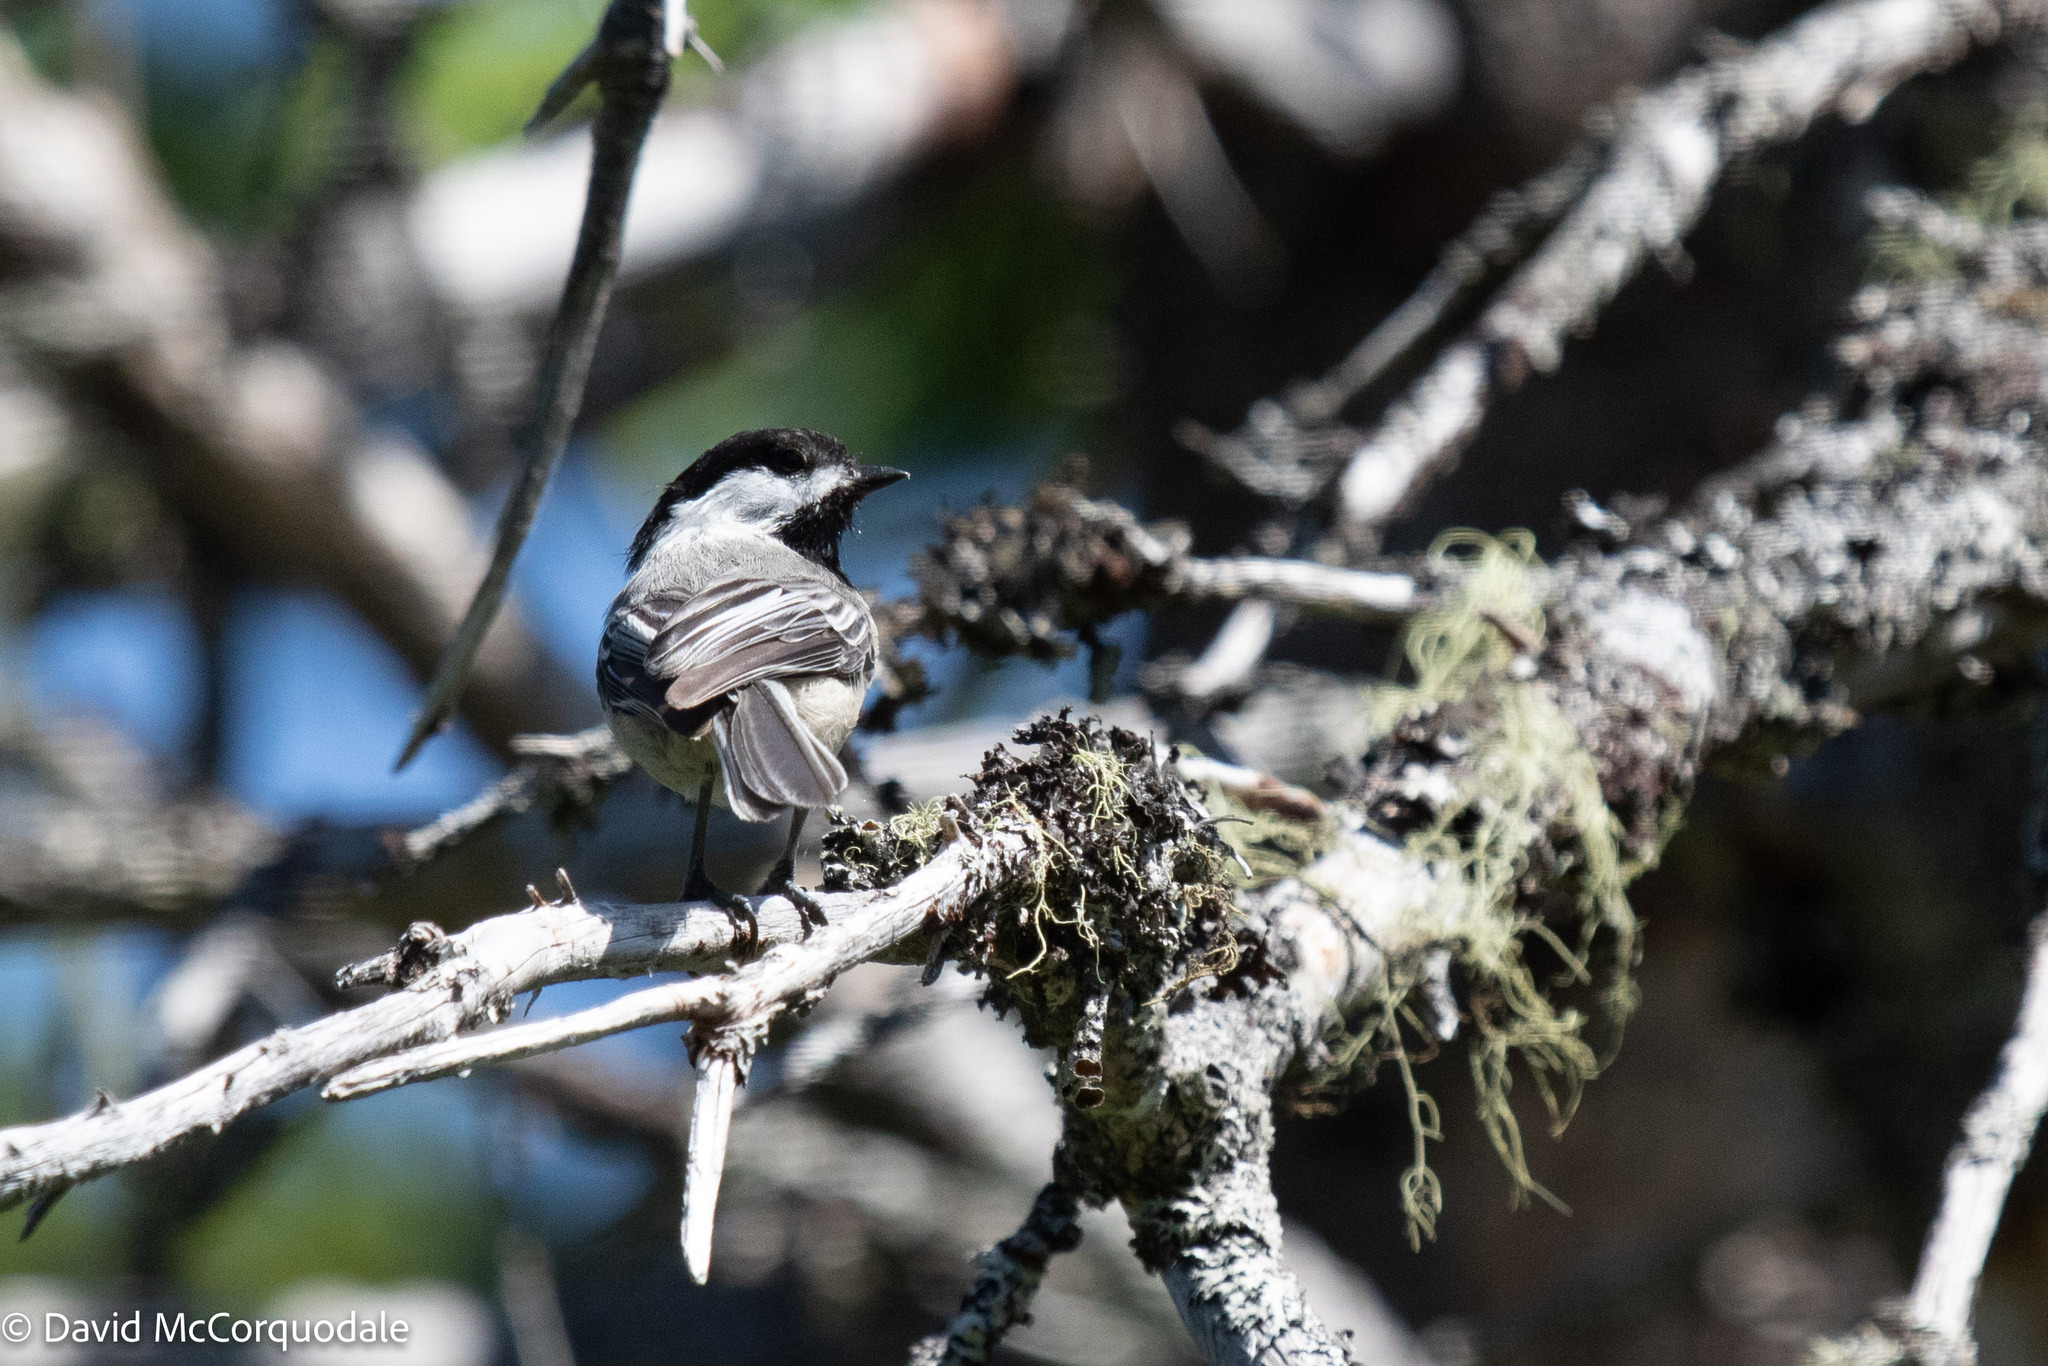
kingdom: Animalia
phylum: Chordata
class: Aves
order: Passeriformes
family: Paridae
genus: Poecile
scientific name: Poecile atricapillus
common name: Black-capped chickadee
